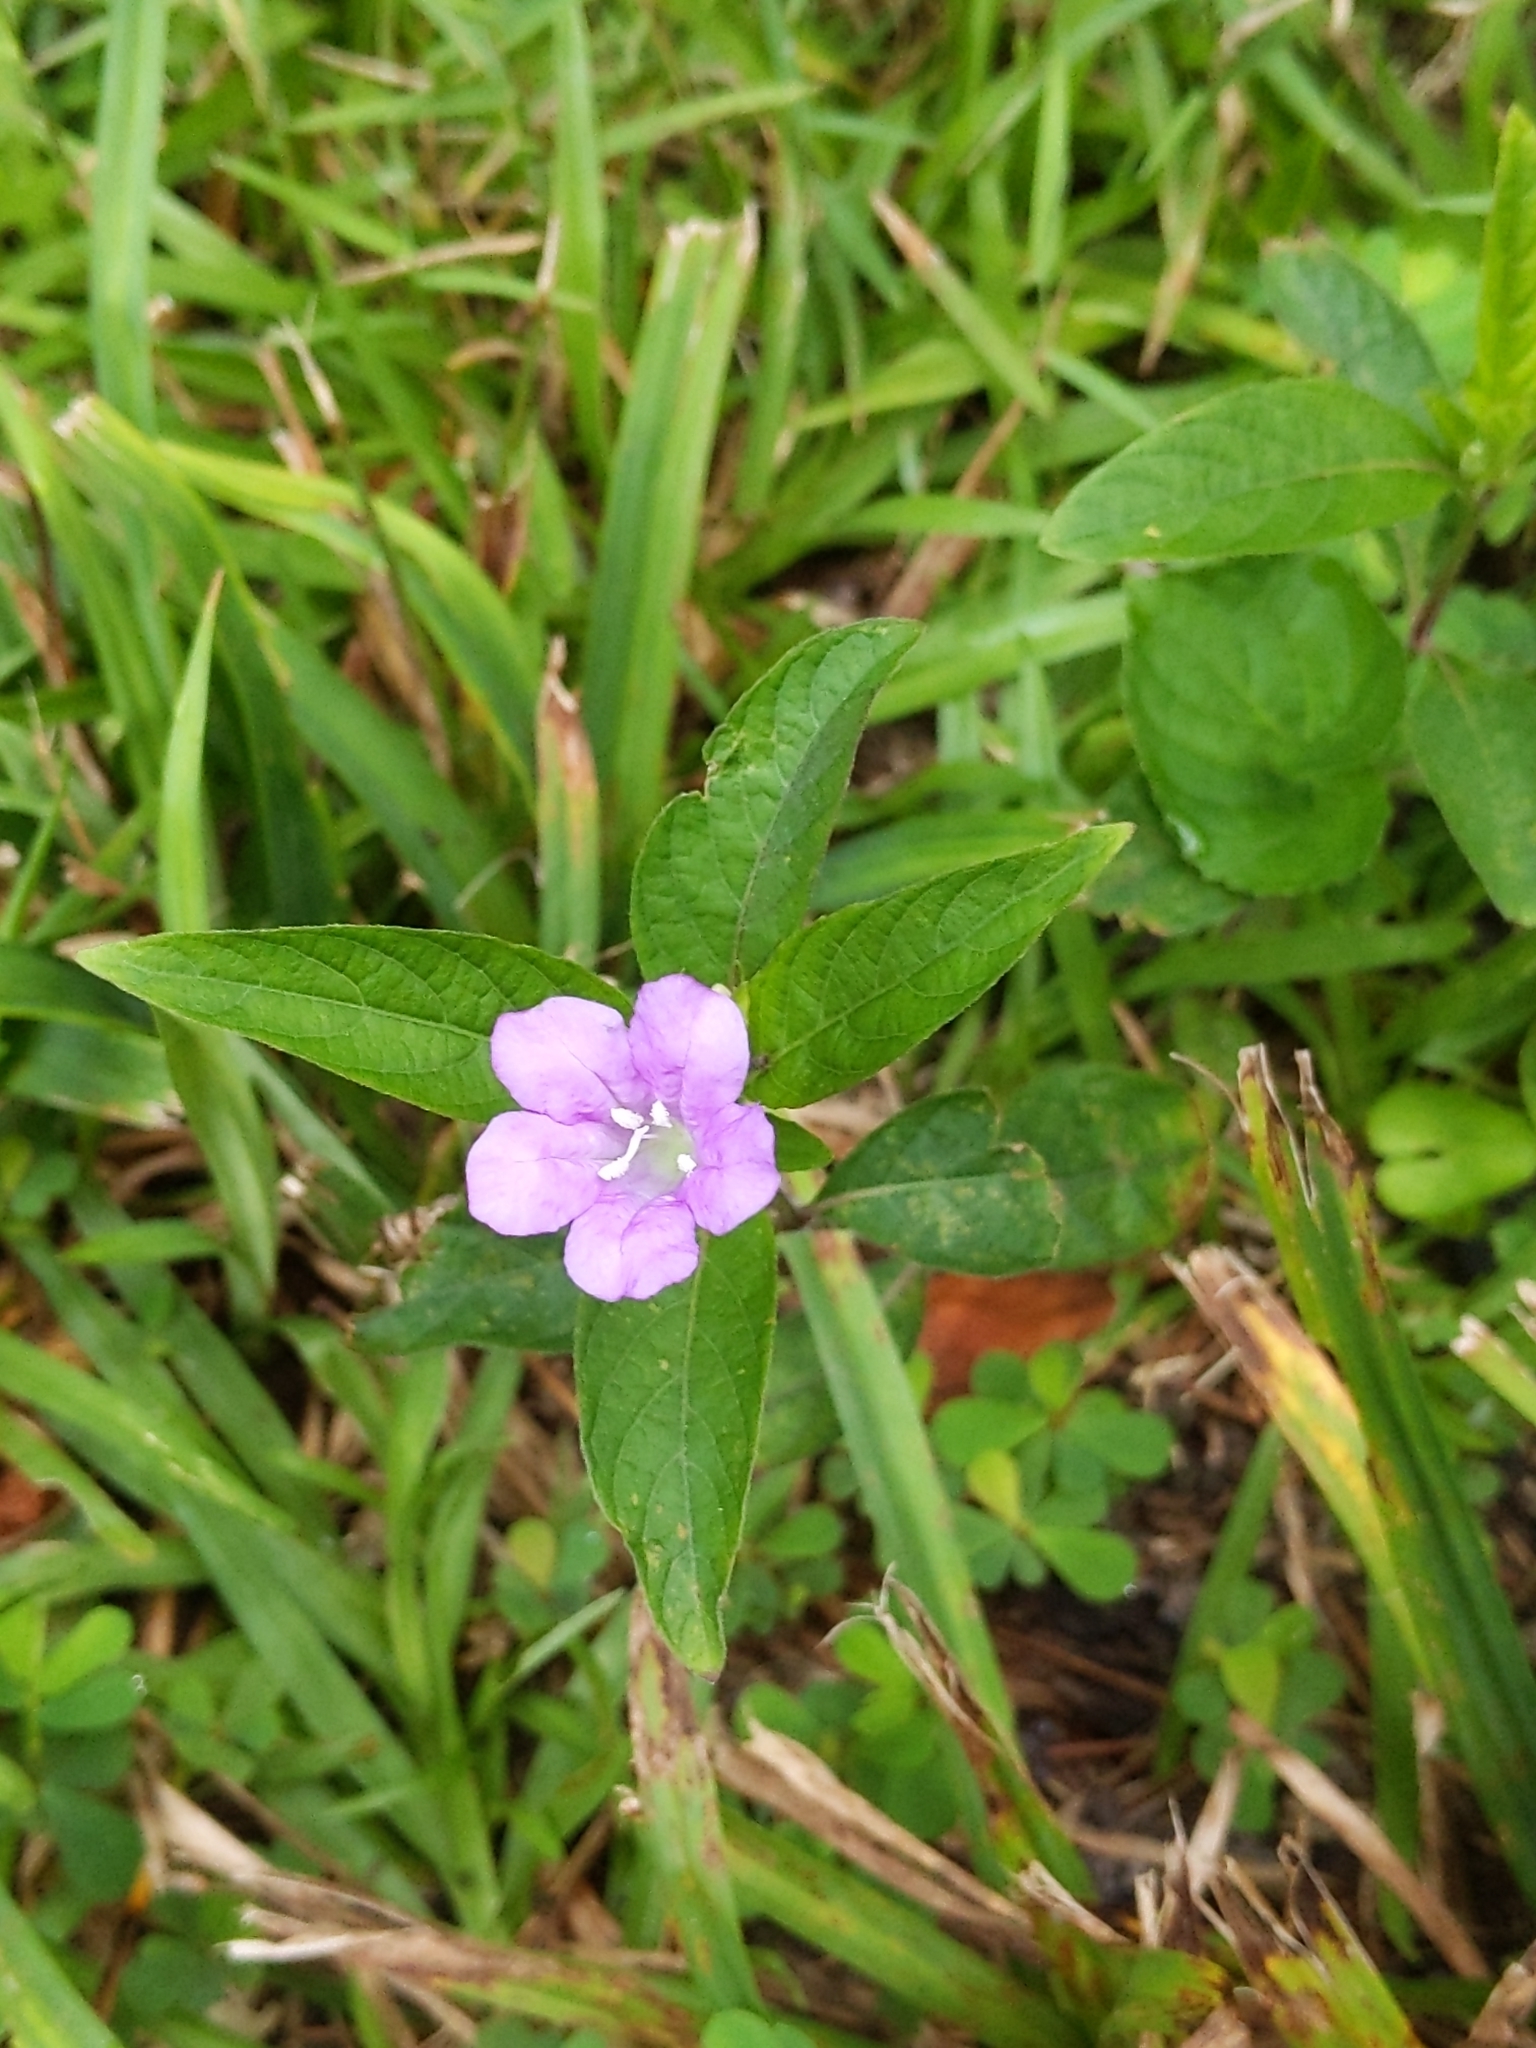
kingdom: Plantae
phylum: Tracheophyta
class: Magnoliopsida
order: Lamiales
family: Acanthaceae
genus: Ruellia
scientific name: Ruellia caroliniensis
